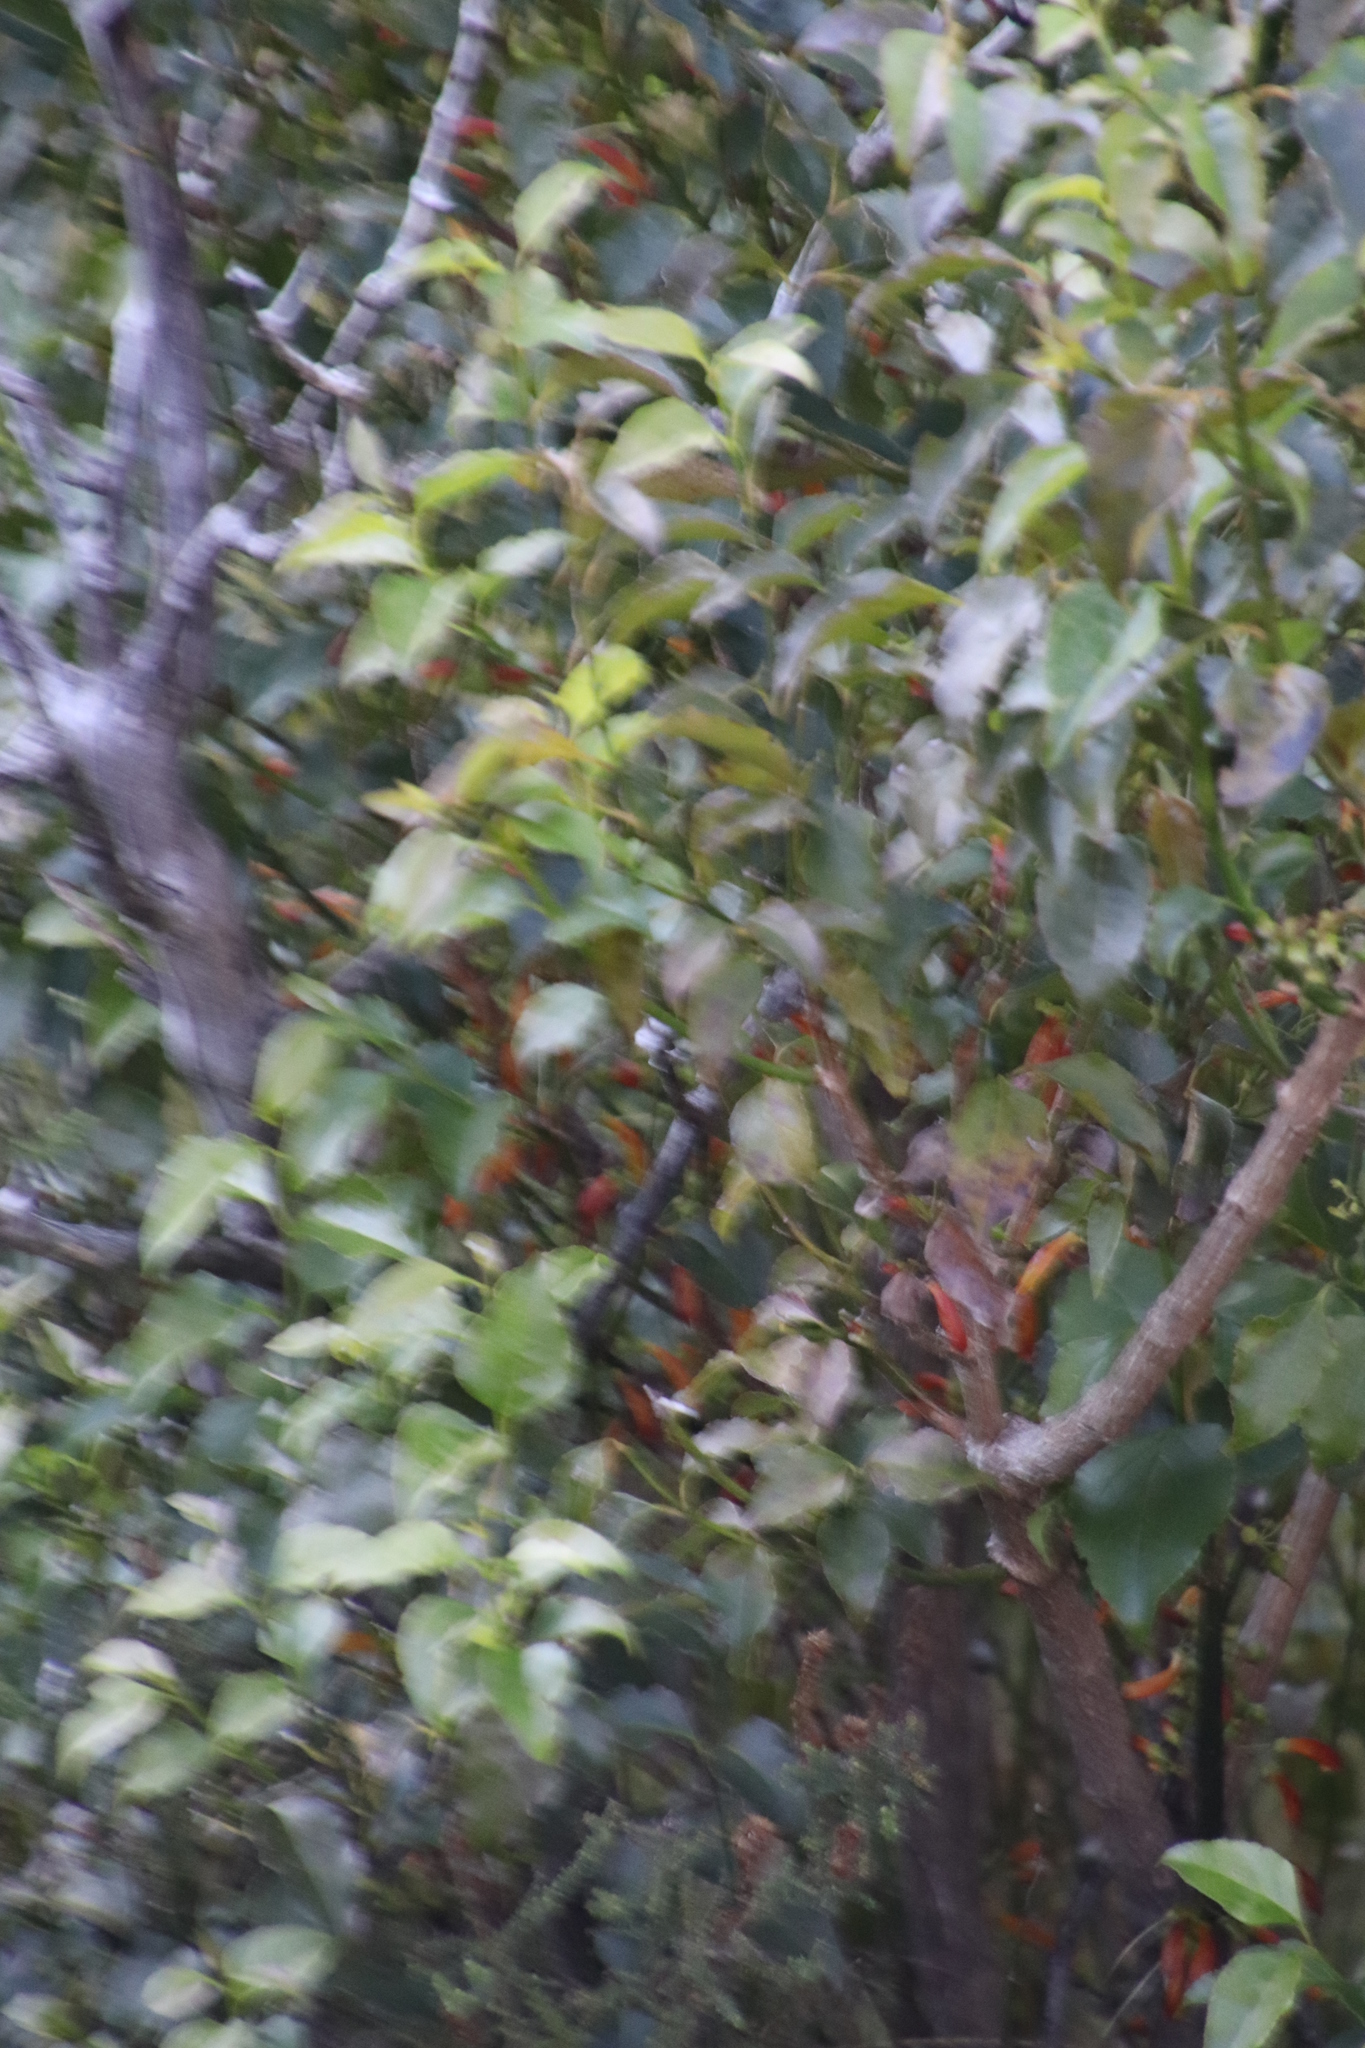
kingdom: Plantae
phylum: Tracheophyta
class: Magnoliopsida
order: Lamiales
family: Stilbaceae
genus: Halleria
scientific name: Halleria lucida
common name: Tree fuschia
